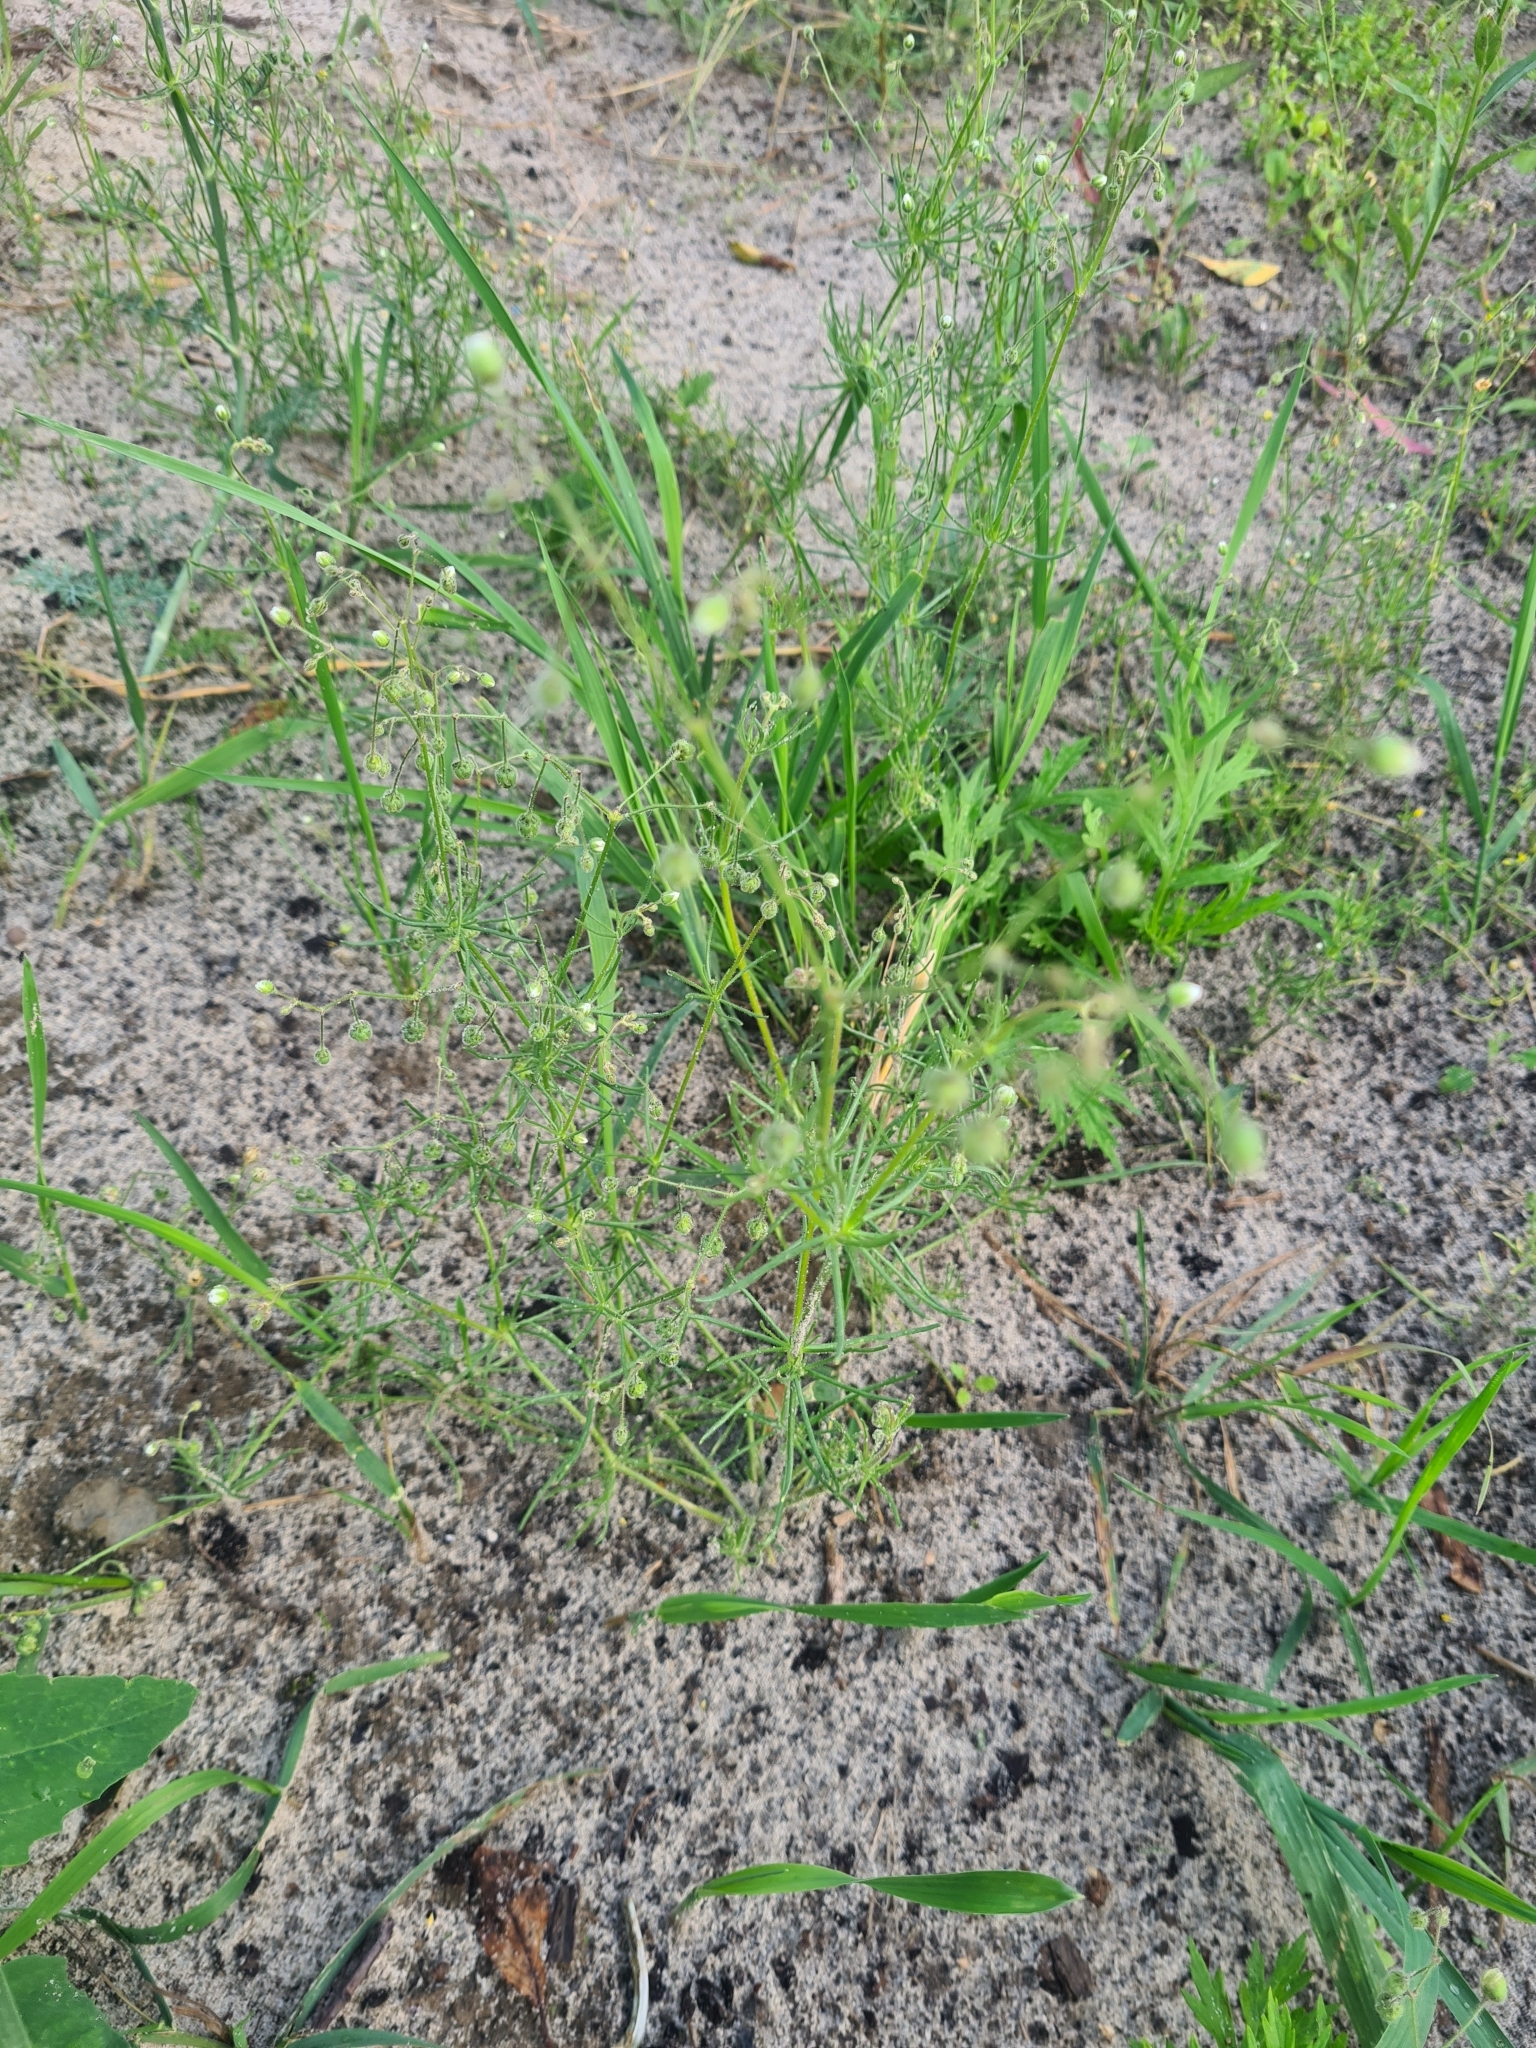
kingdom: Plantae
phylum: Tracheophyta
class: Magnoliopsida
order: Caryophyllales
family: Caryophyllaceae
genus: Spergula
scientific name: Spergula arvensis
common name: Corn spurrey
